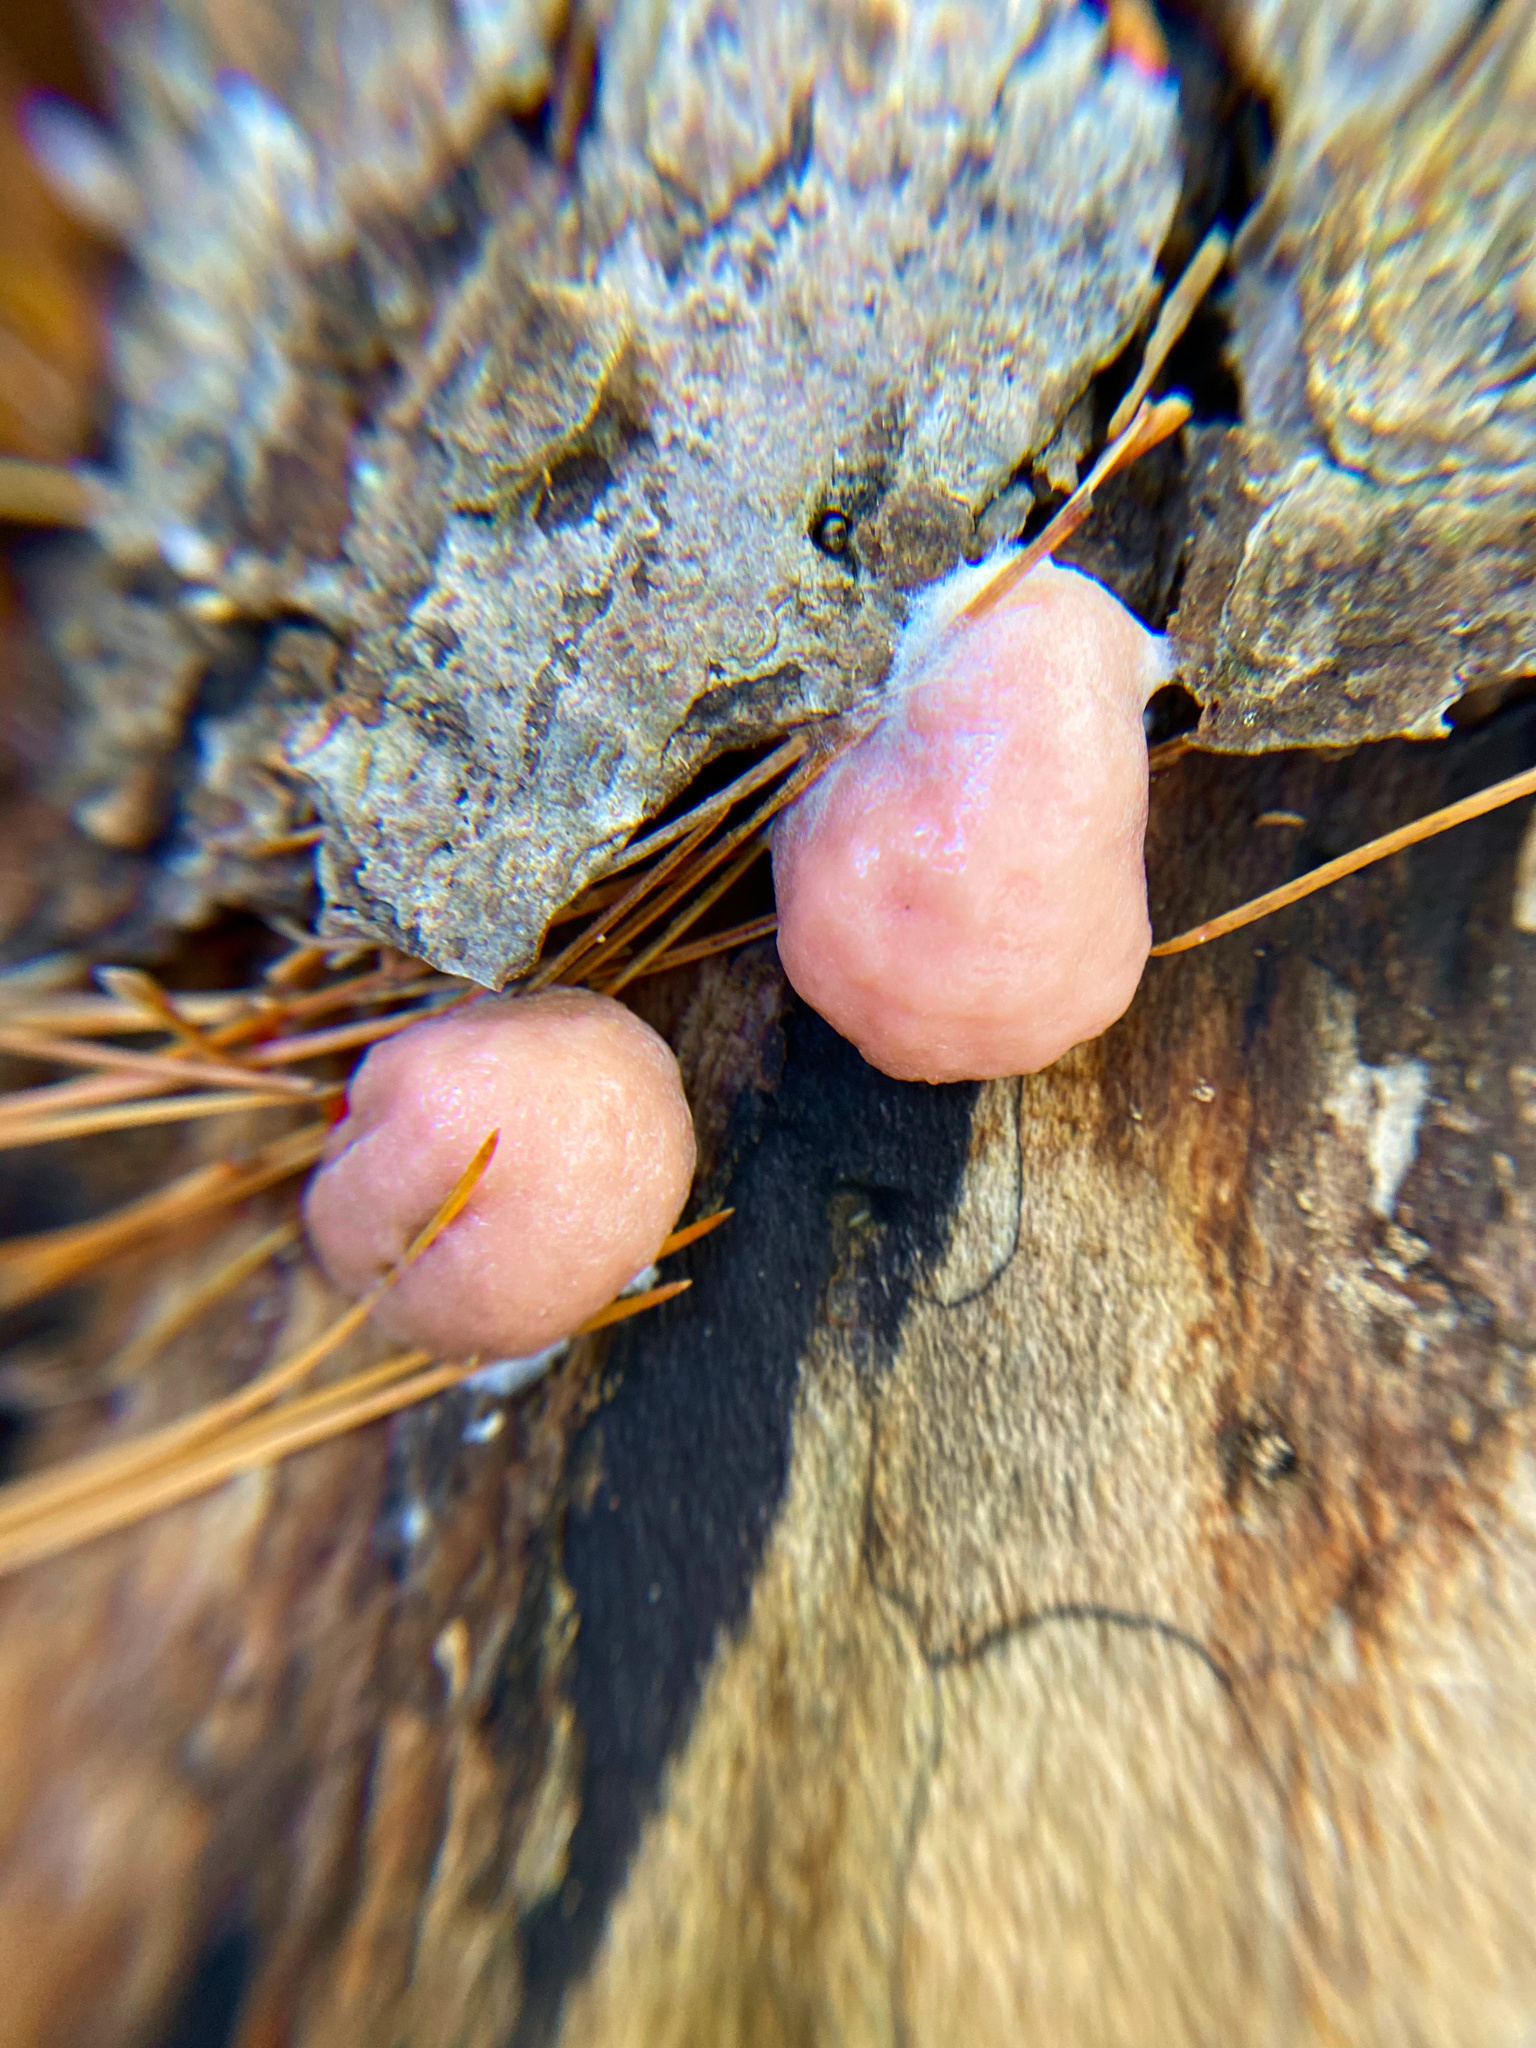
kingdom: Protozoa
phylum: Mycetozoa
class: Myxomycetes
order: Cribrariales
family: Tubiferaceae
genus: Lycogala
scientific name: Lycogala epidendrum
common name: Wolf's milk
